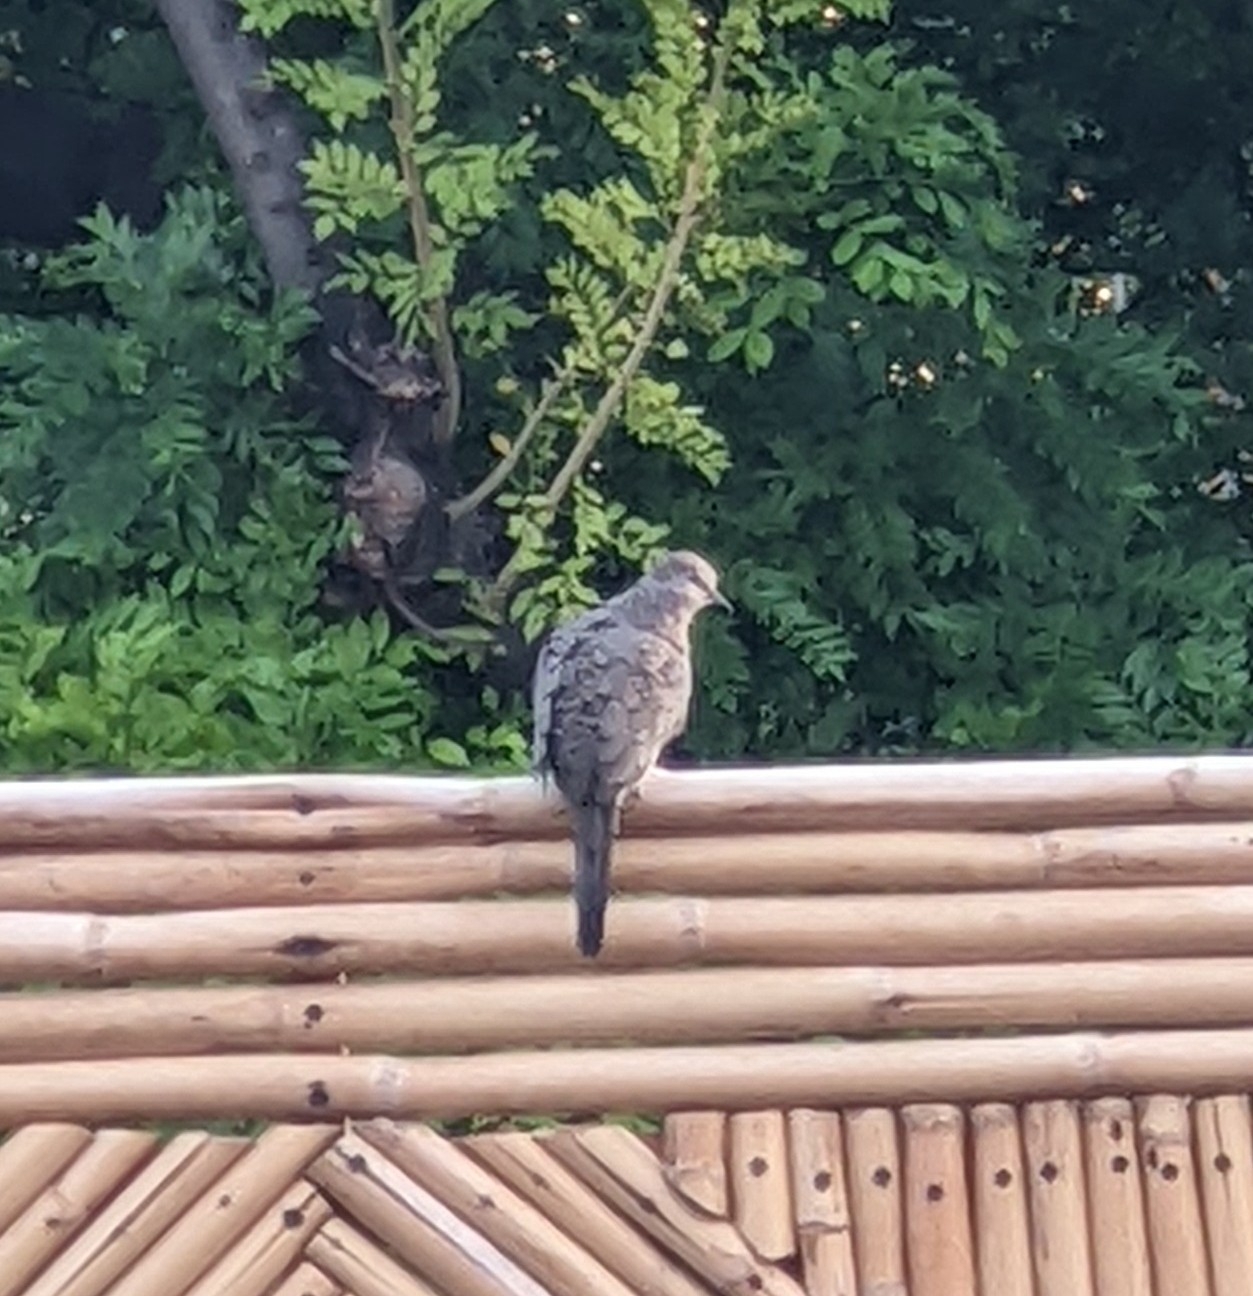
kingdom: Animalia
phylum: Chordata
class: Aves
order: Columbiformes
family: Columbidae
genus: Columbina
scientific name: Columbina inca
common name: Inca dove
